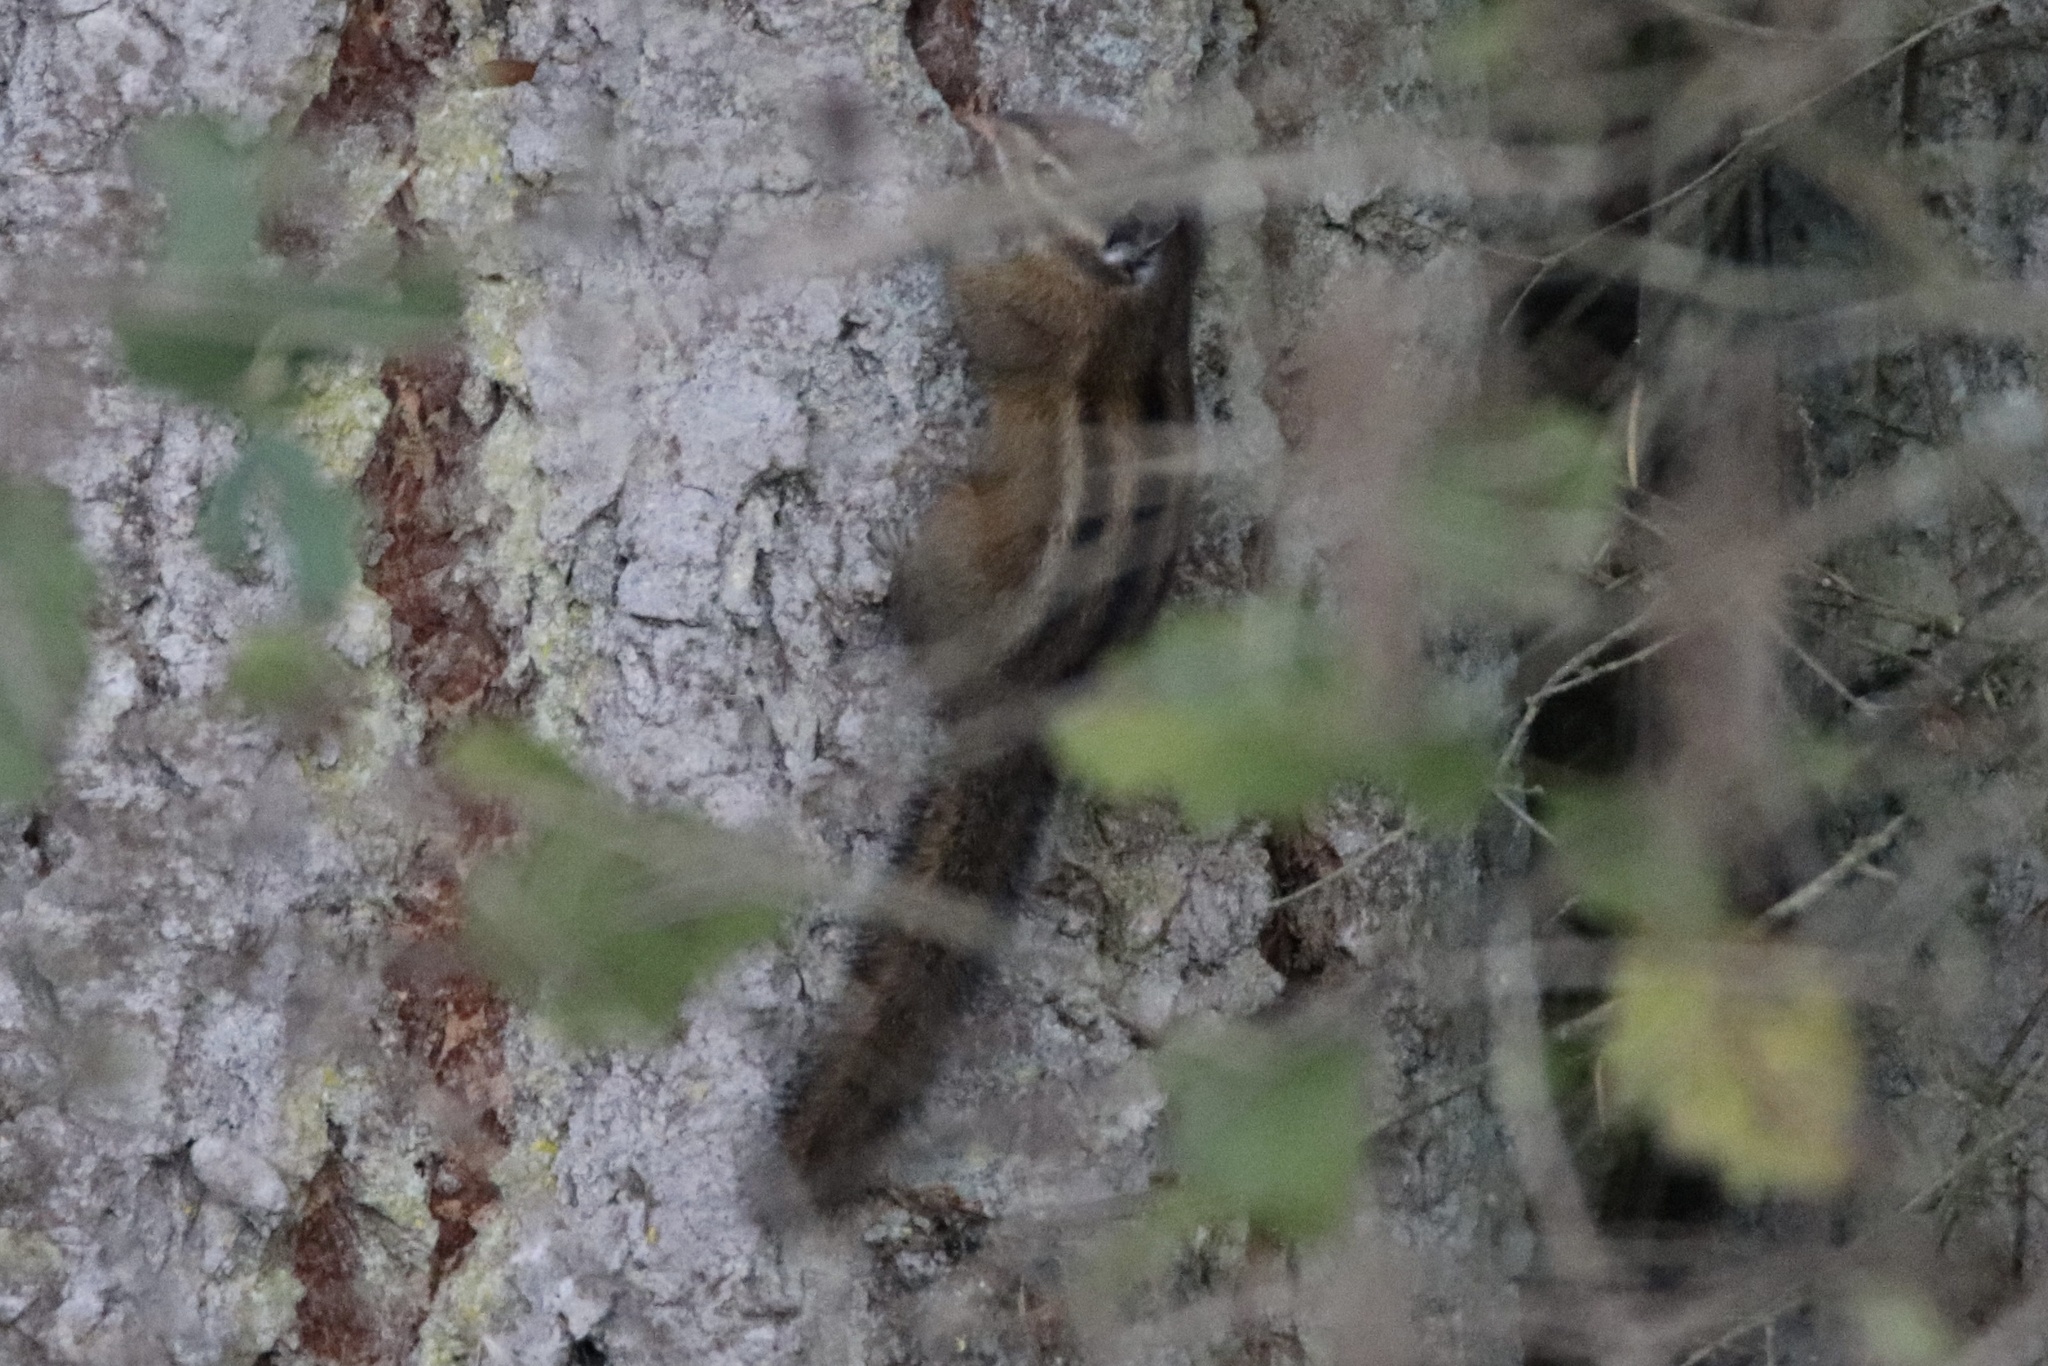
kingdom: Animalia
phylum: Chordata
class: Mammalia
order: Rodentia
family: Sciuridae
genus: Tamias
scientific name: Tamias townsendii
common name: Townsend's chipmunk
